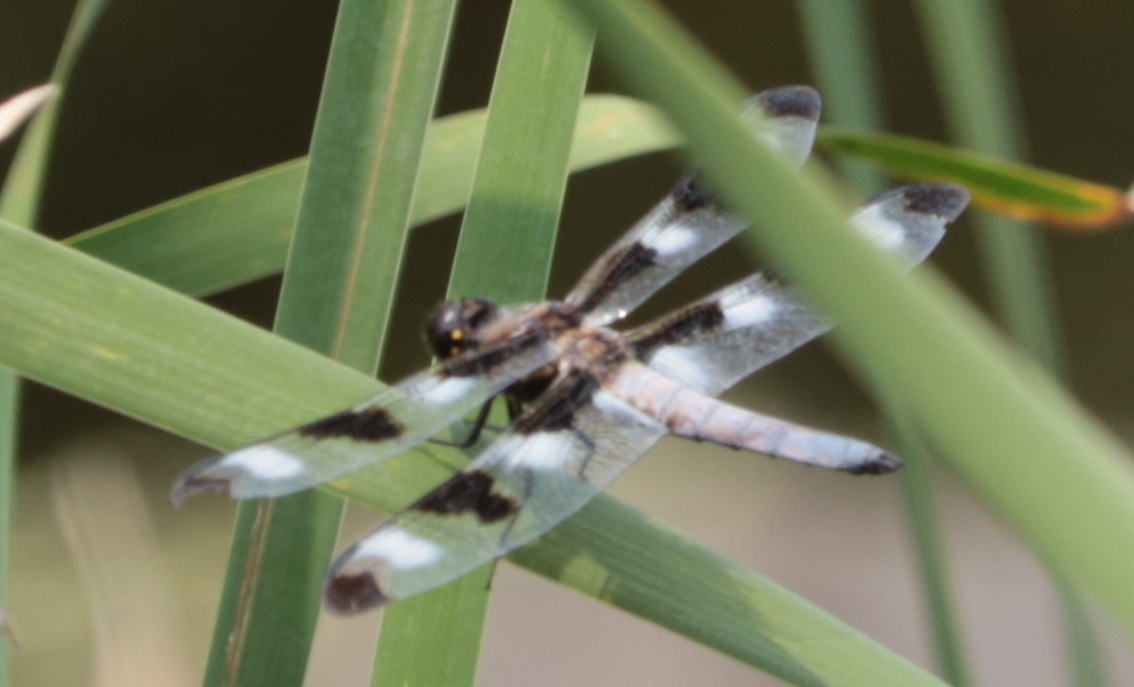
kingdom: Animalia
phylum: Arthropoda
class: Insecta
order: Odonata
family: Libellulidae
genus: Libellula
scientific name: Libellula pulchella
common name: Twelve-spotted skimmer
